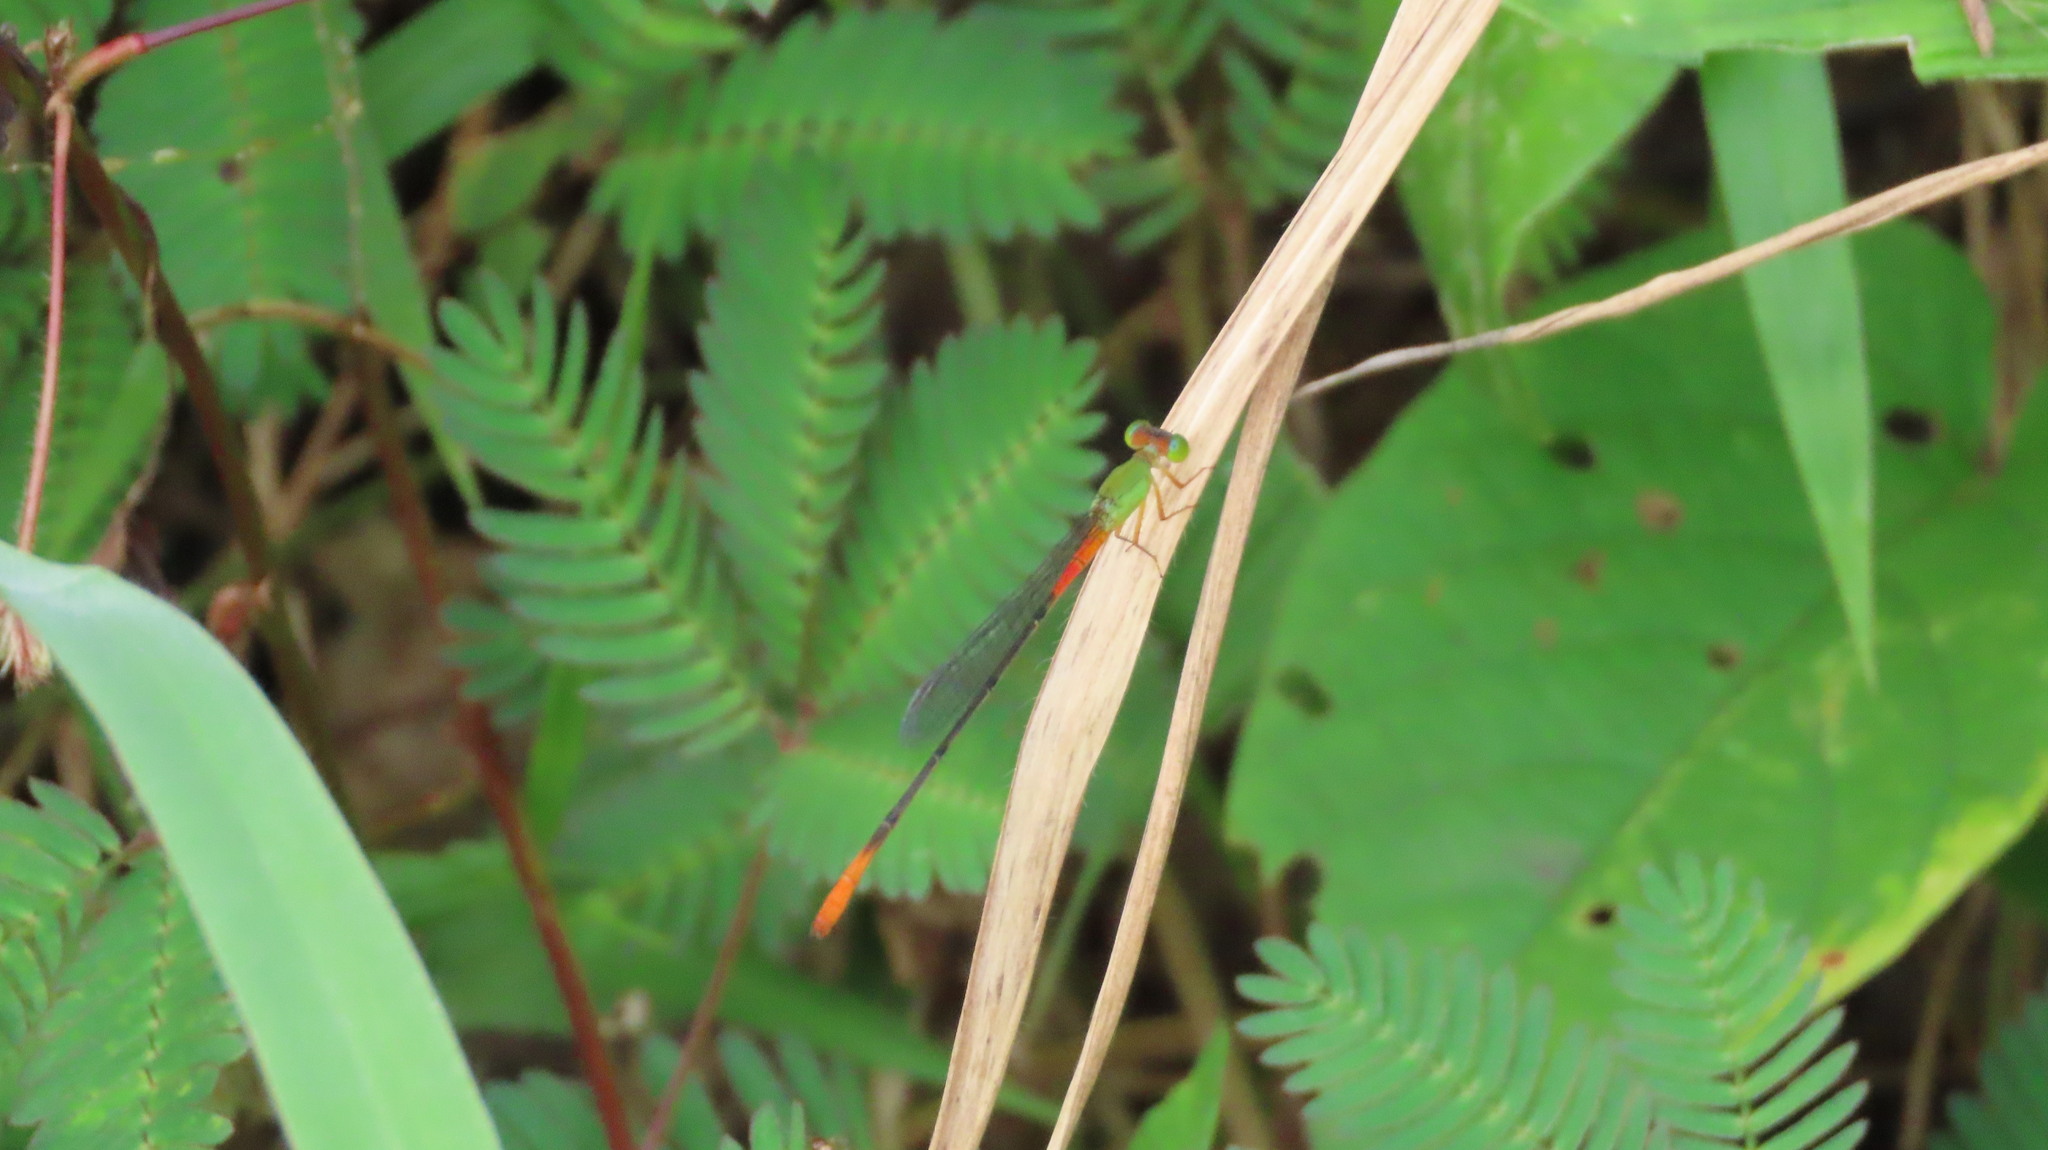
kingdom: Animalia
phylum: Arthropoda
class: Insecta
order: Odonata
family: Coenagrionidae
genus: Ceriagrion
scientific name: Ceriagrion cerinorubellum
